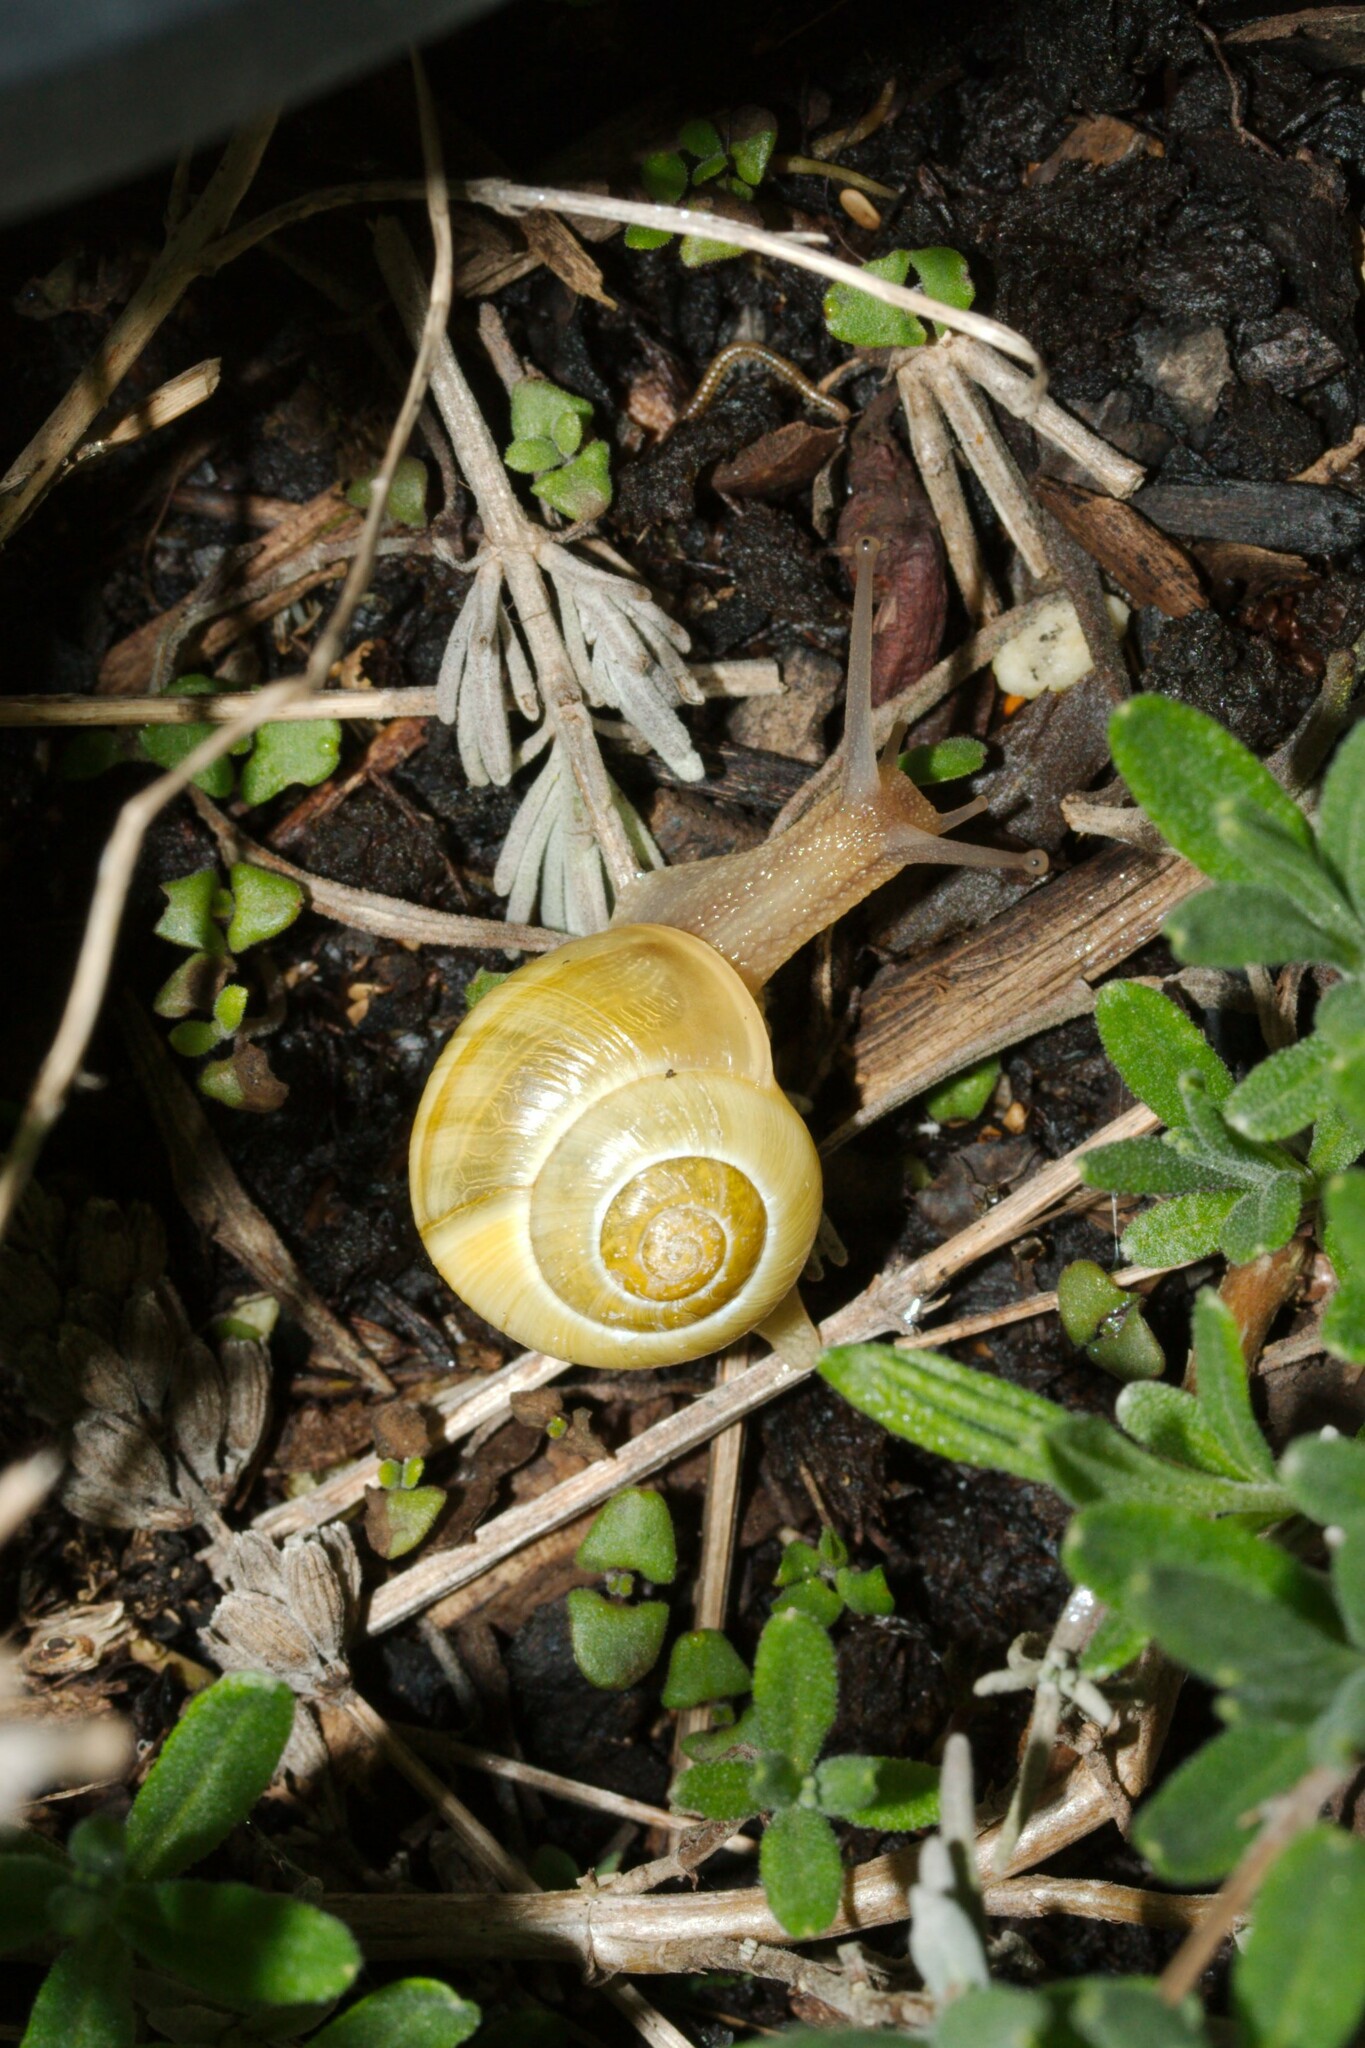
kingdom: Animalia
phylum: Mollusca
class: Gastropoda
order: Stylommatophora
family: Helicidae
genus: Cepaea
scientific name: Cepaea
